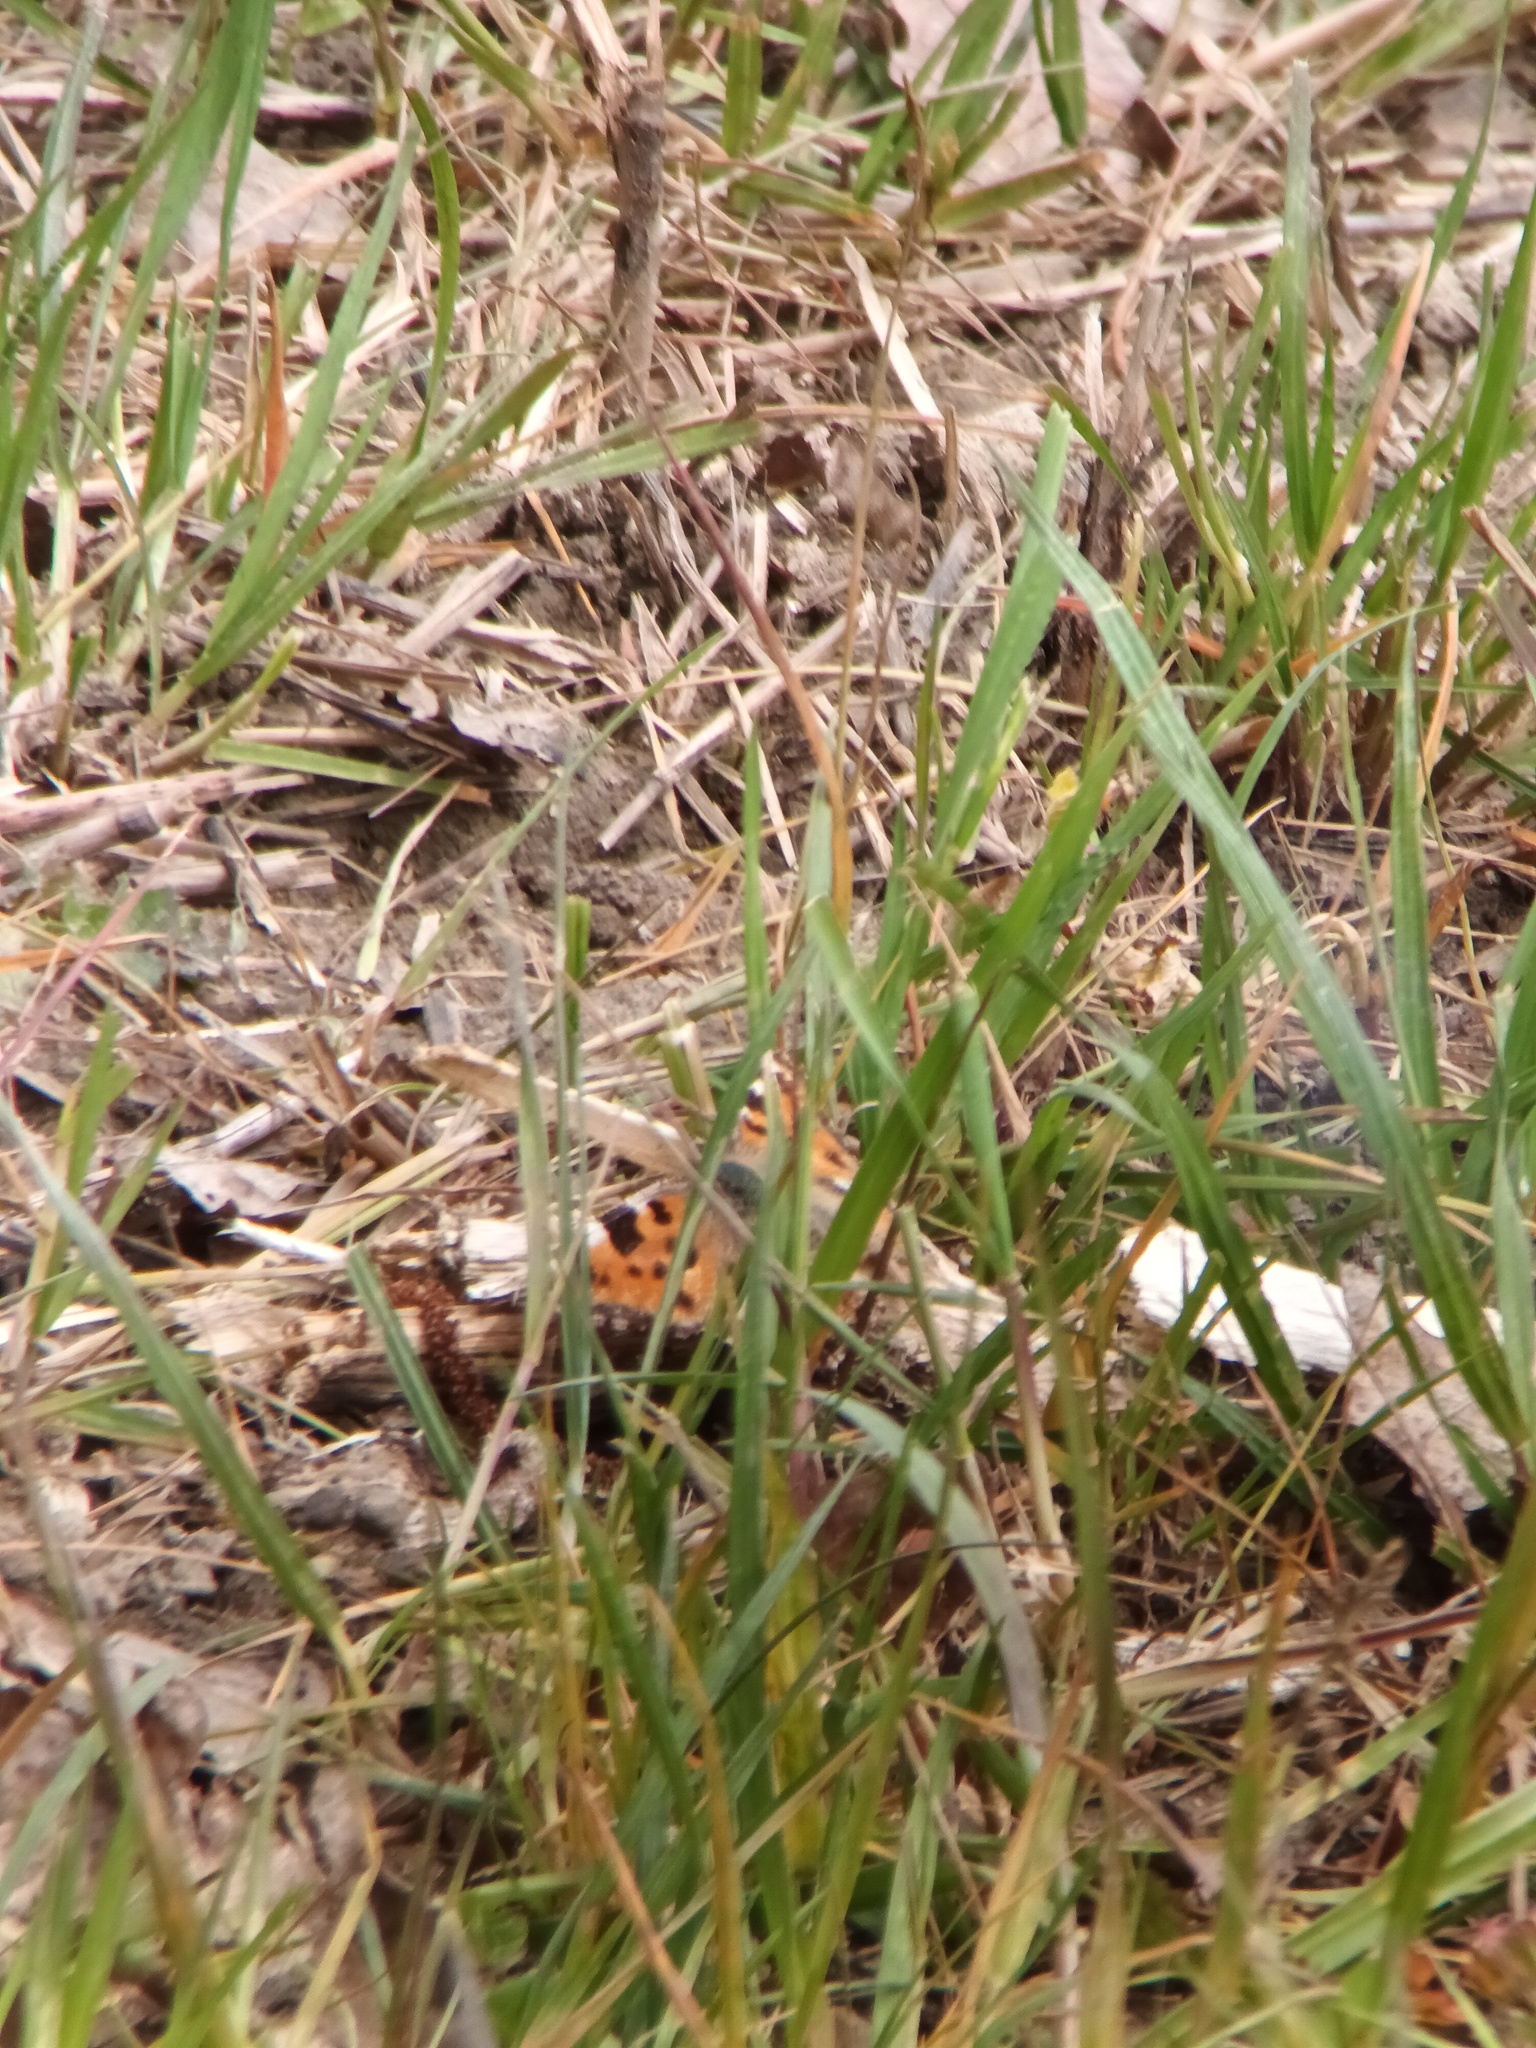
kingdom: Animalia
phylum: Arthropoda
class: Insecta
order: Lepidoptera
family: Nymphalidae
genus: Nymphalis
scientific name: Nymphalis polychloros
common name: Large tortoiseshell
